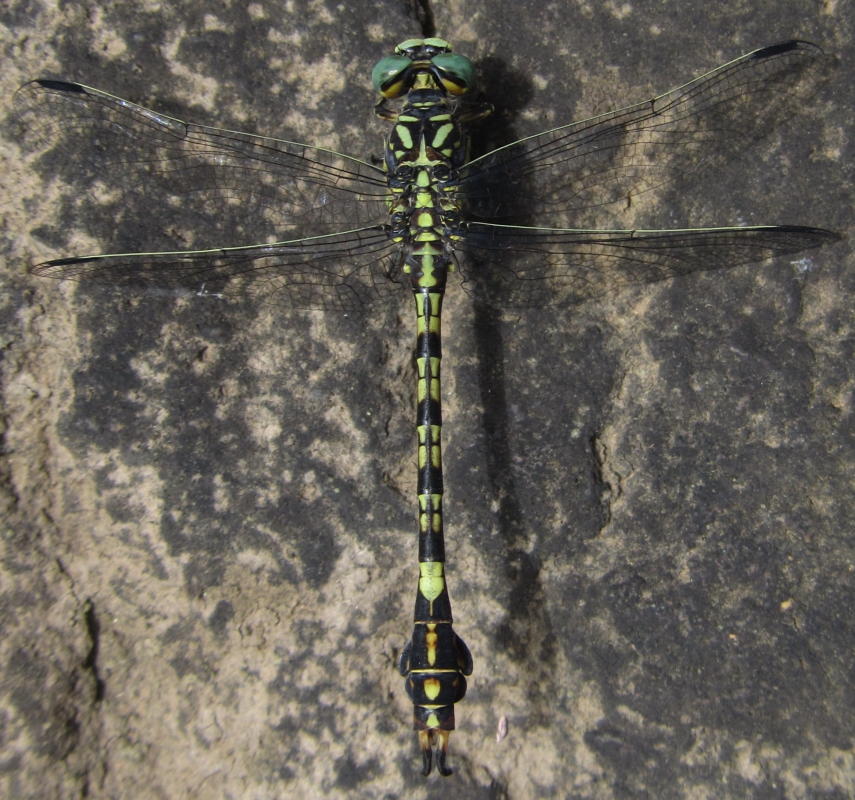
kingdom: Animalia
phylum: Arthropoda
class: Insecta
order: Odonata
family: Gomphidae
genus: Paragomphus
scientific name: Paragomphus cognatus
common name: Boulder hooktail
